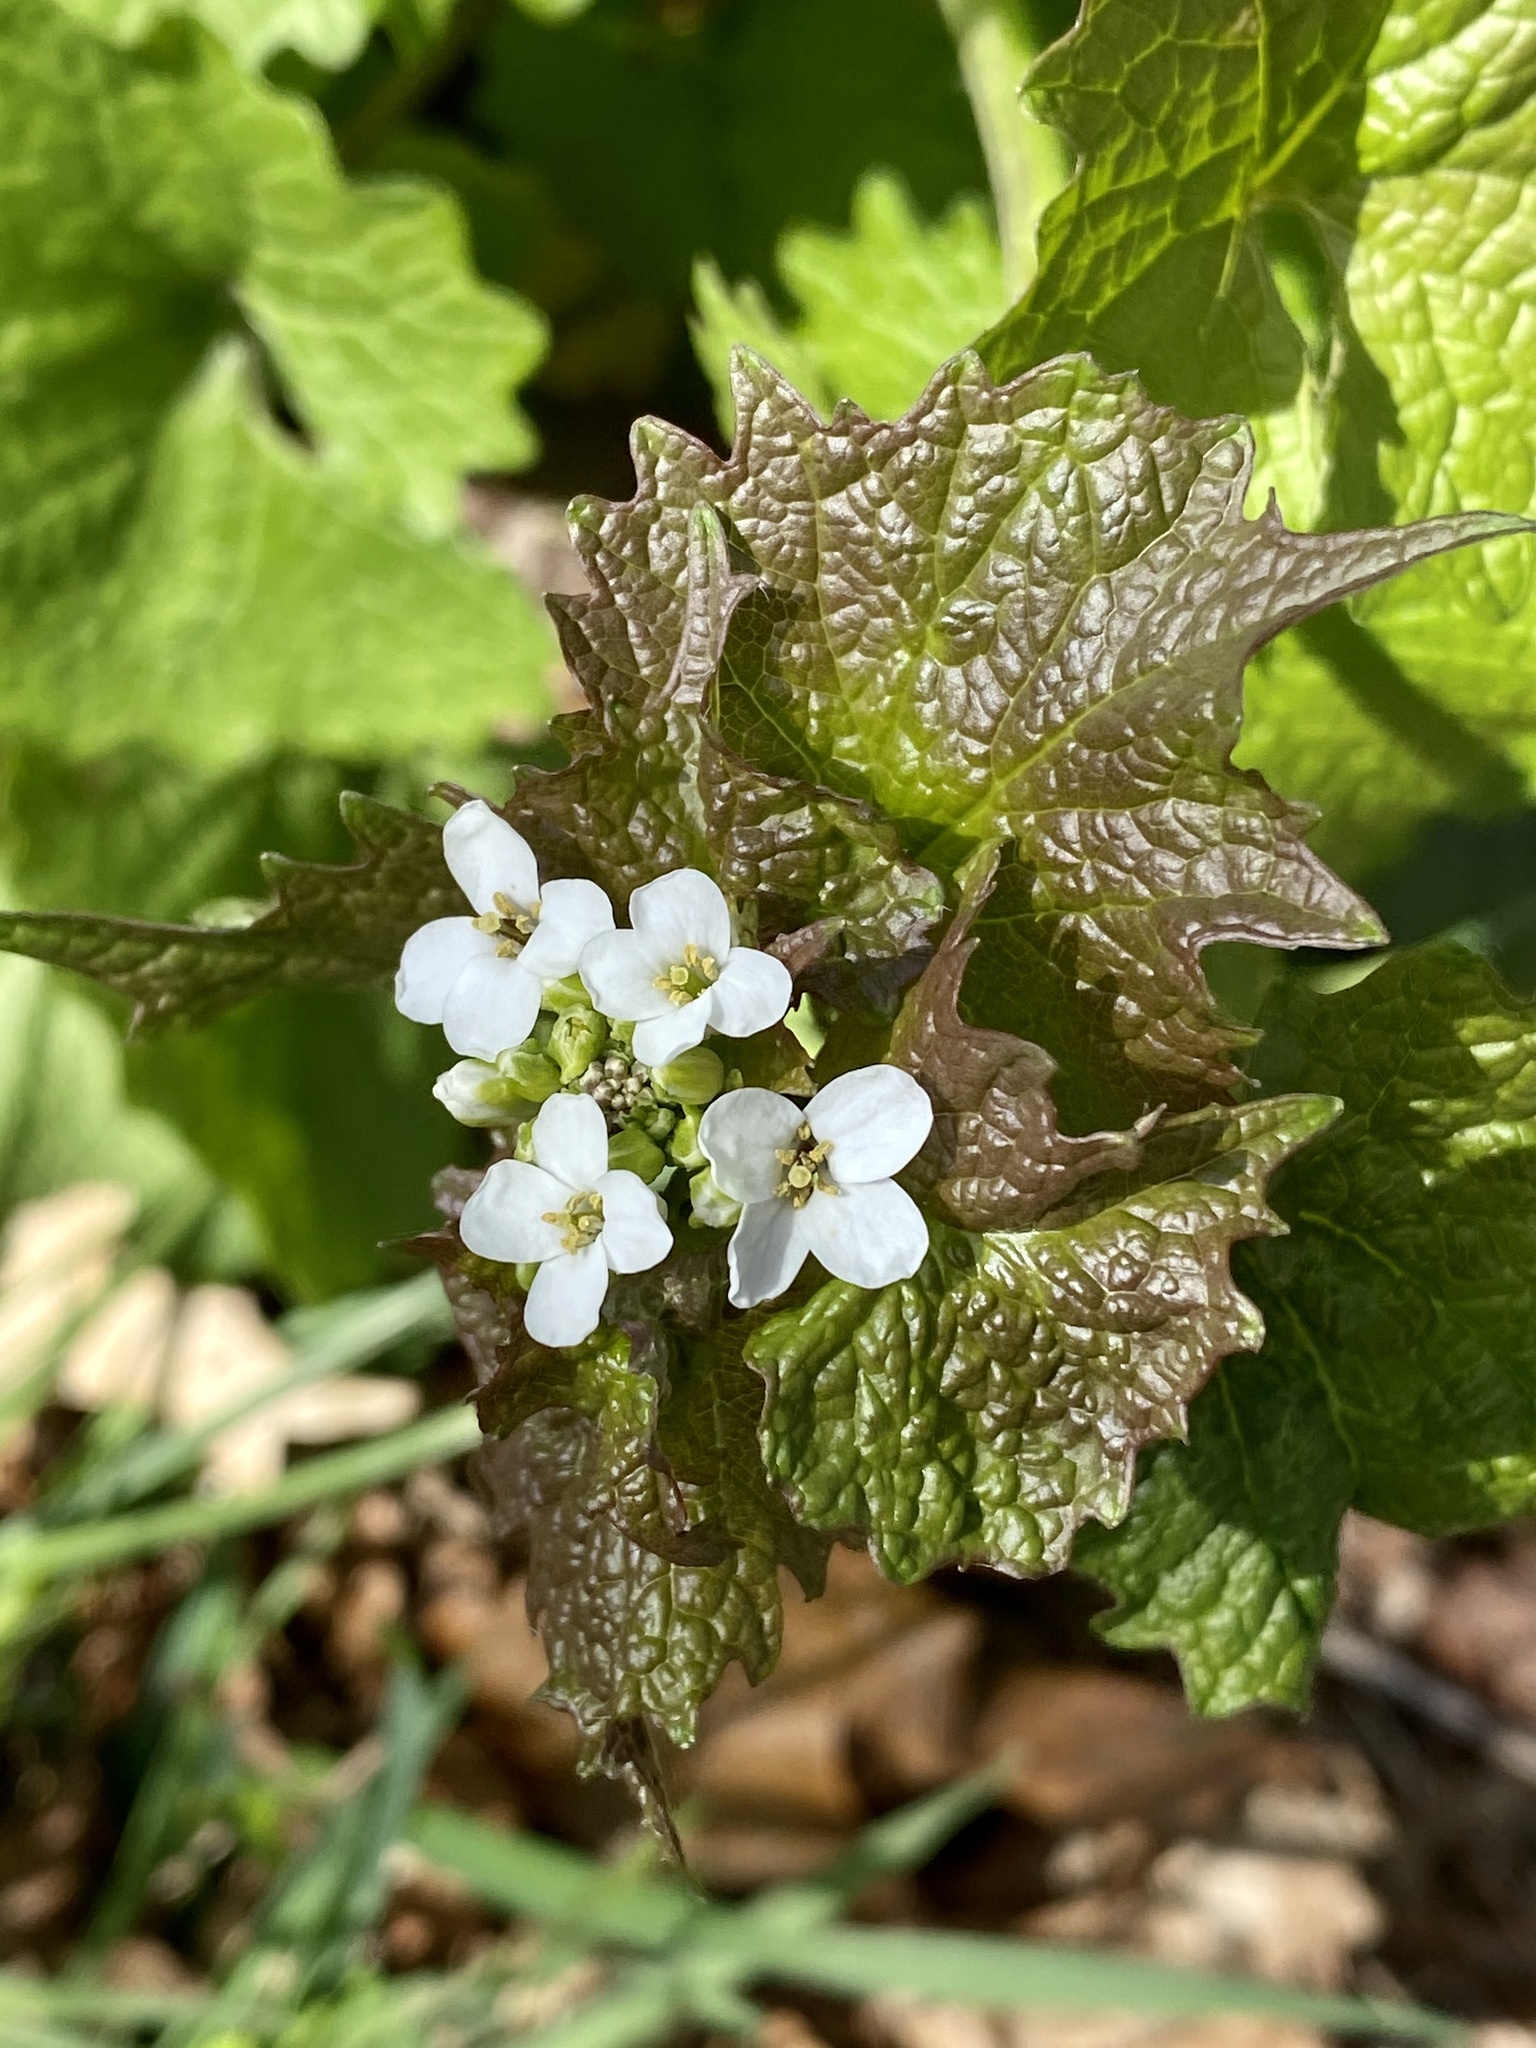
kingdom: Plantae
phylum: Tracheophyta
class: Magnoliopsida
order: Brassicales
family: Brassicaceae
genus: Alliaria
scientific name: Alliaria petiolata
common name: Garlic mustard
